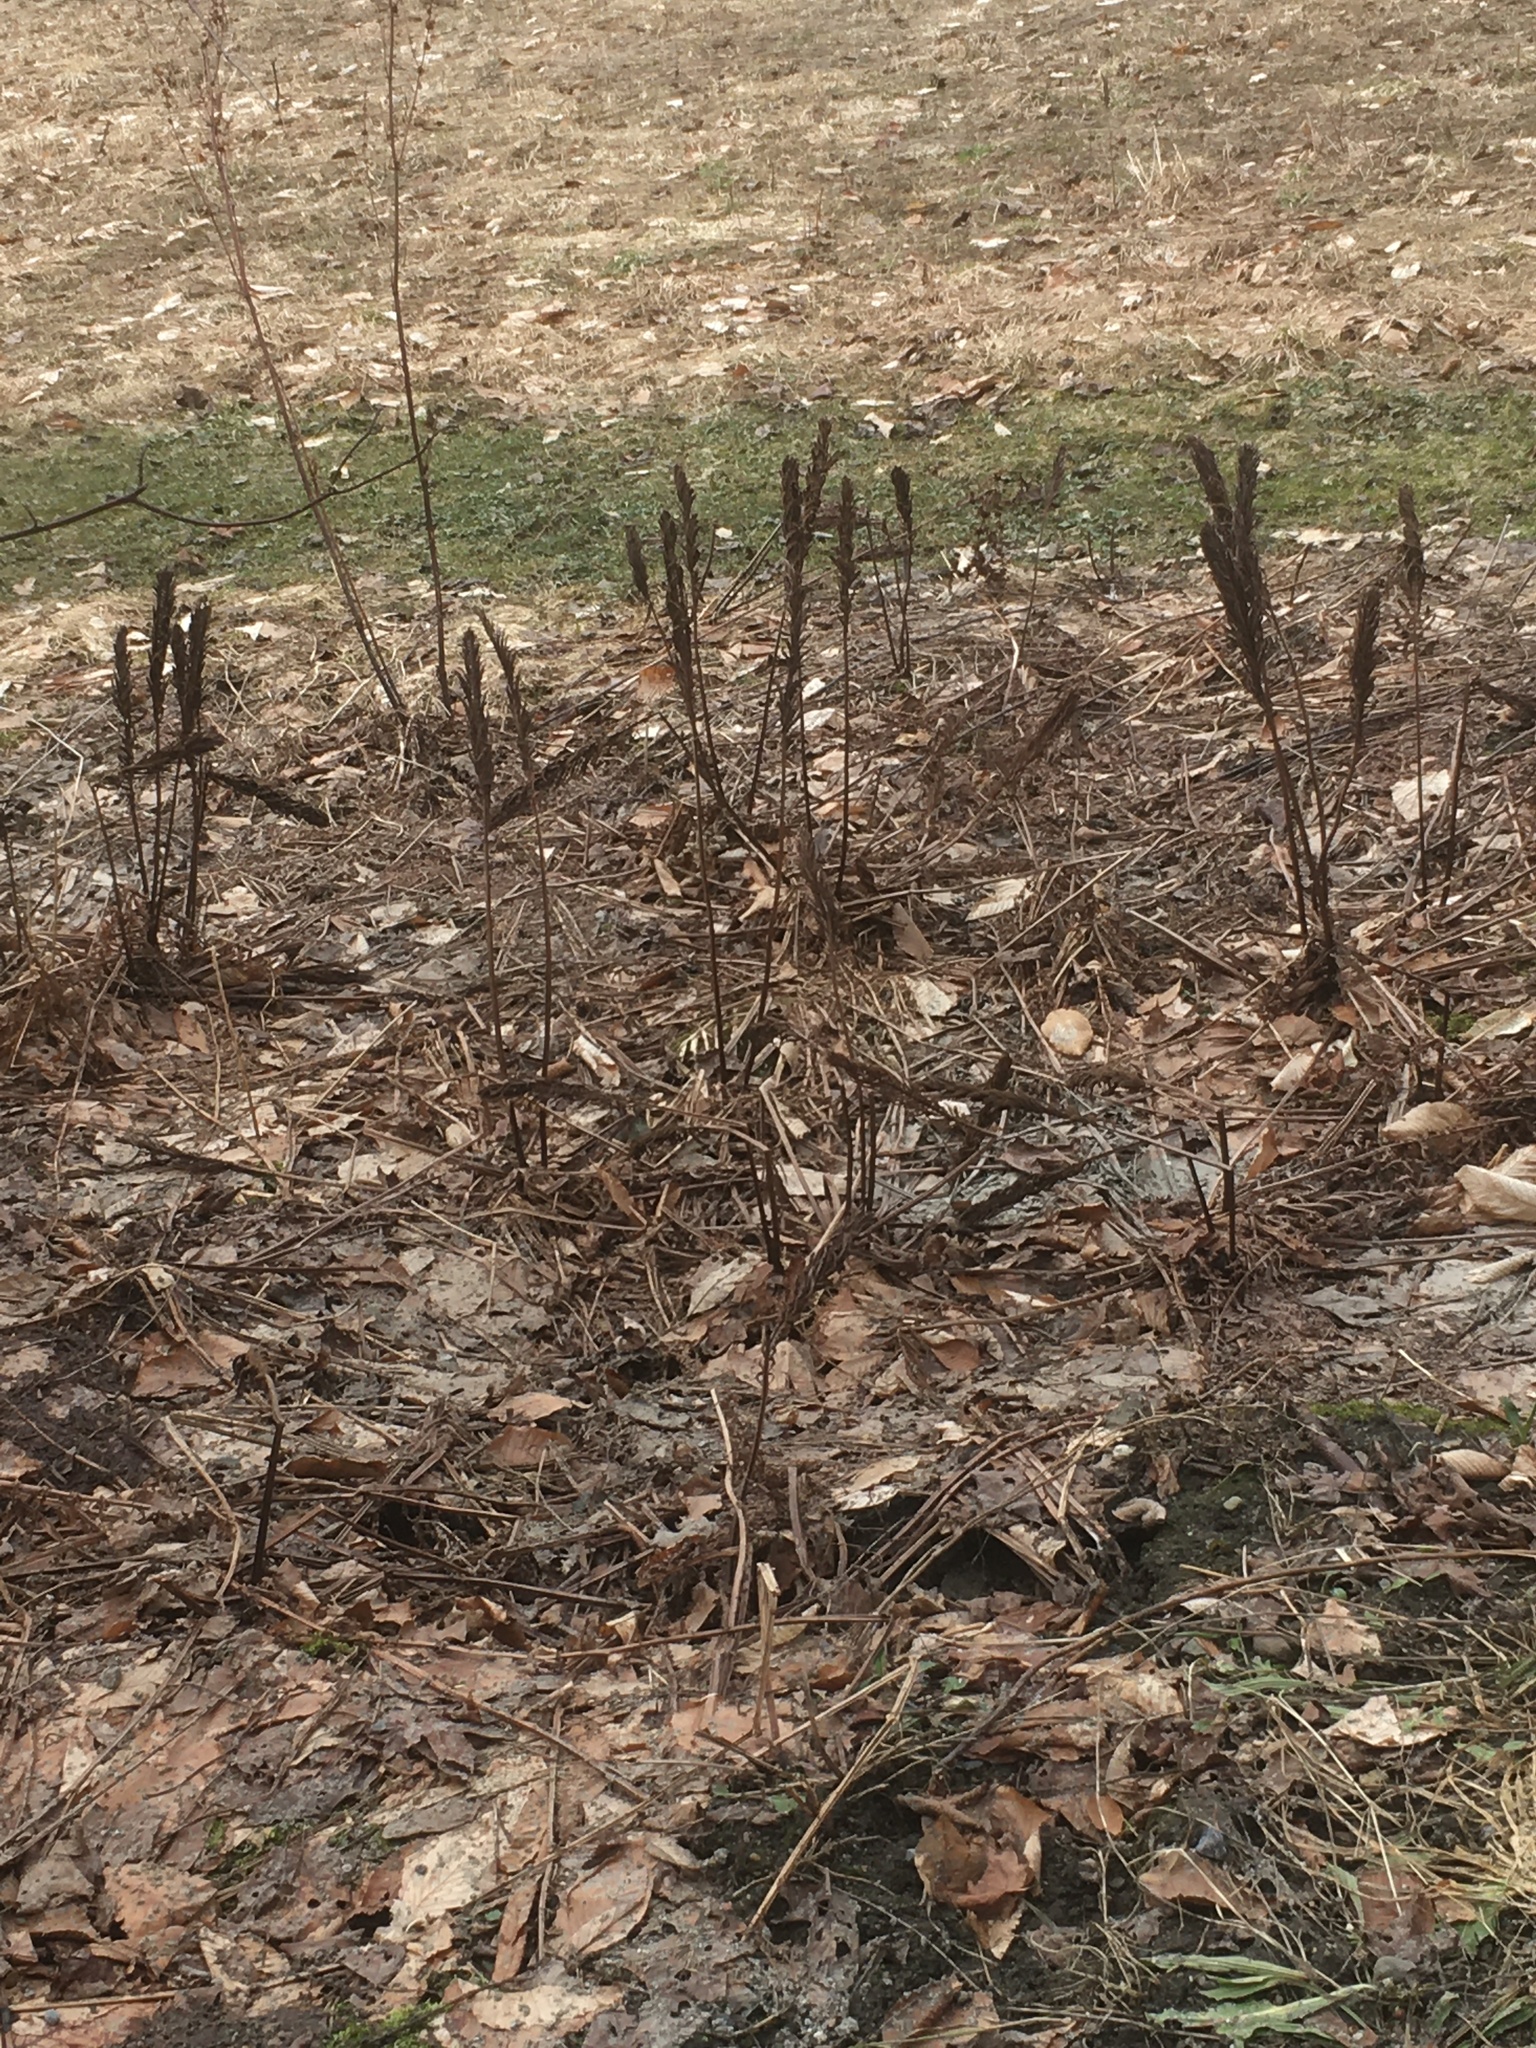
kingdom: Plantae
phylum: Tracheophyta
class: Polypodiopsida
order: Polypodiales
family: Onocleaceae
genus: Matteuccia
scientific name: Matteuccia struthiopteris
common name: Ostrich fern
